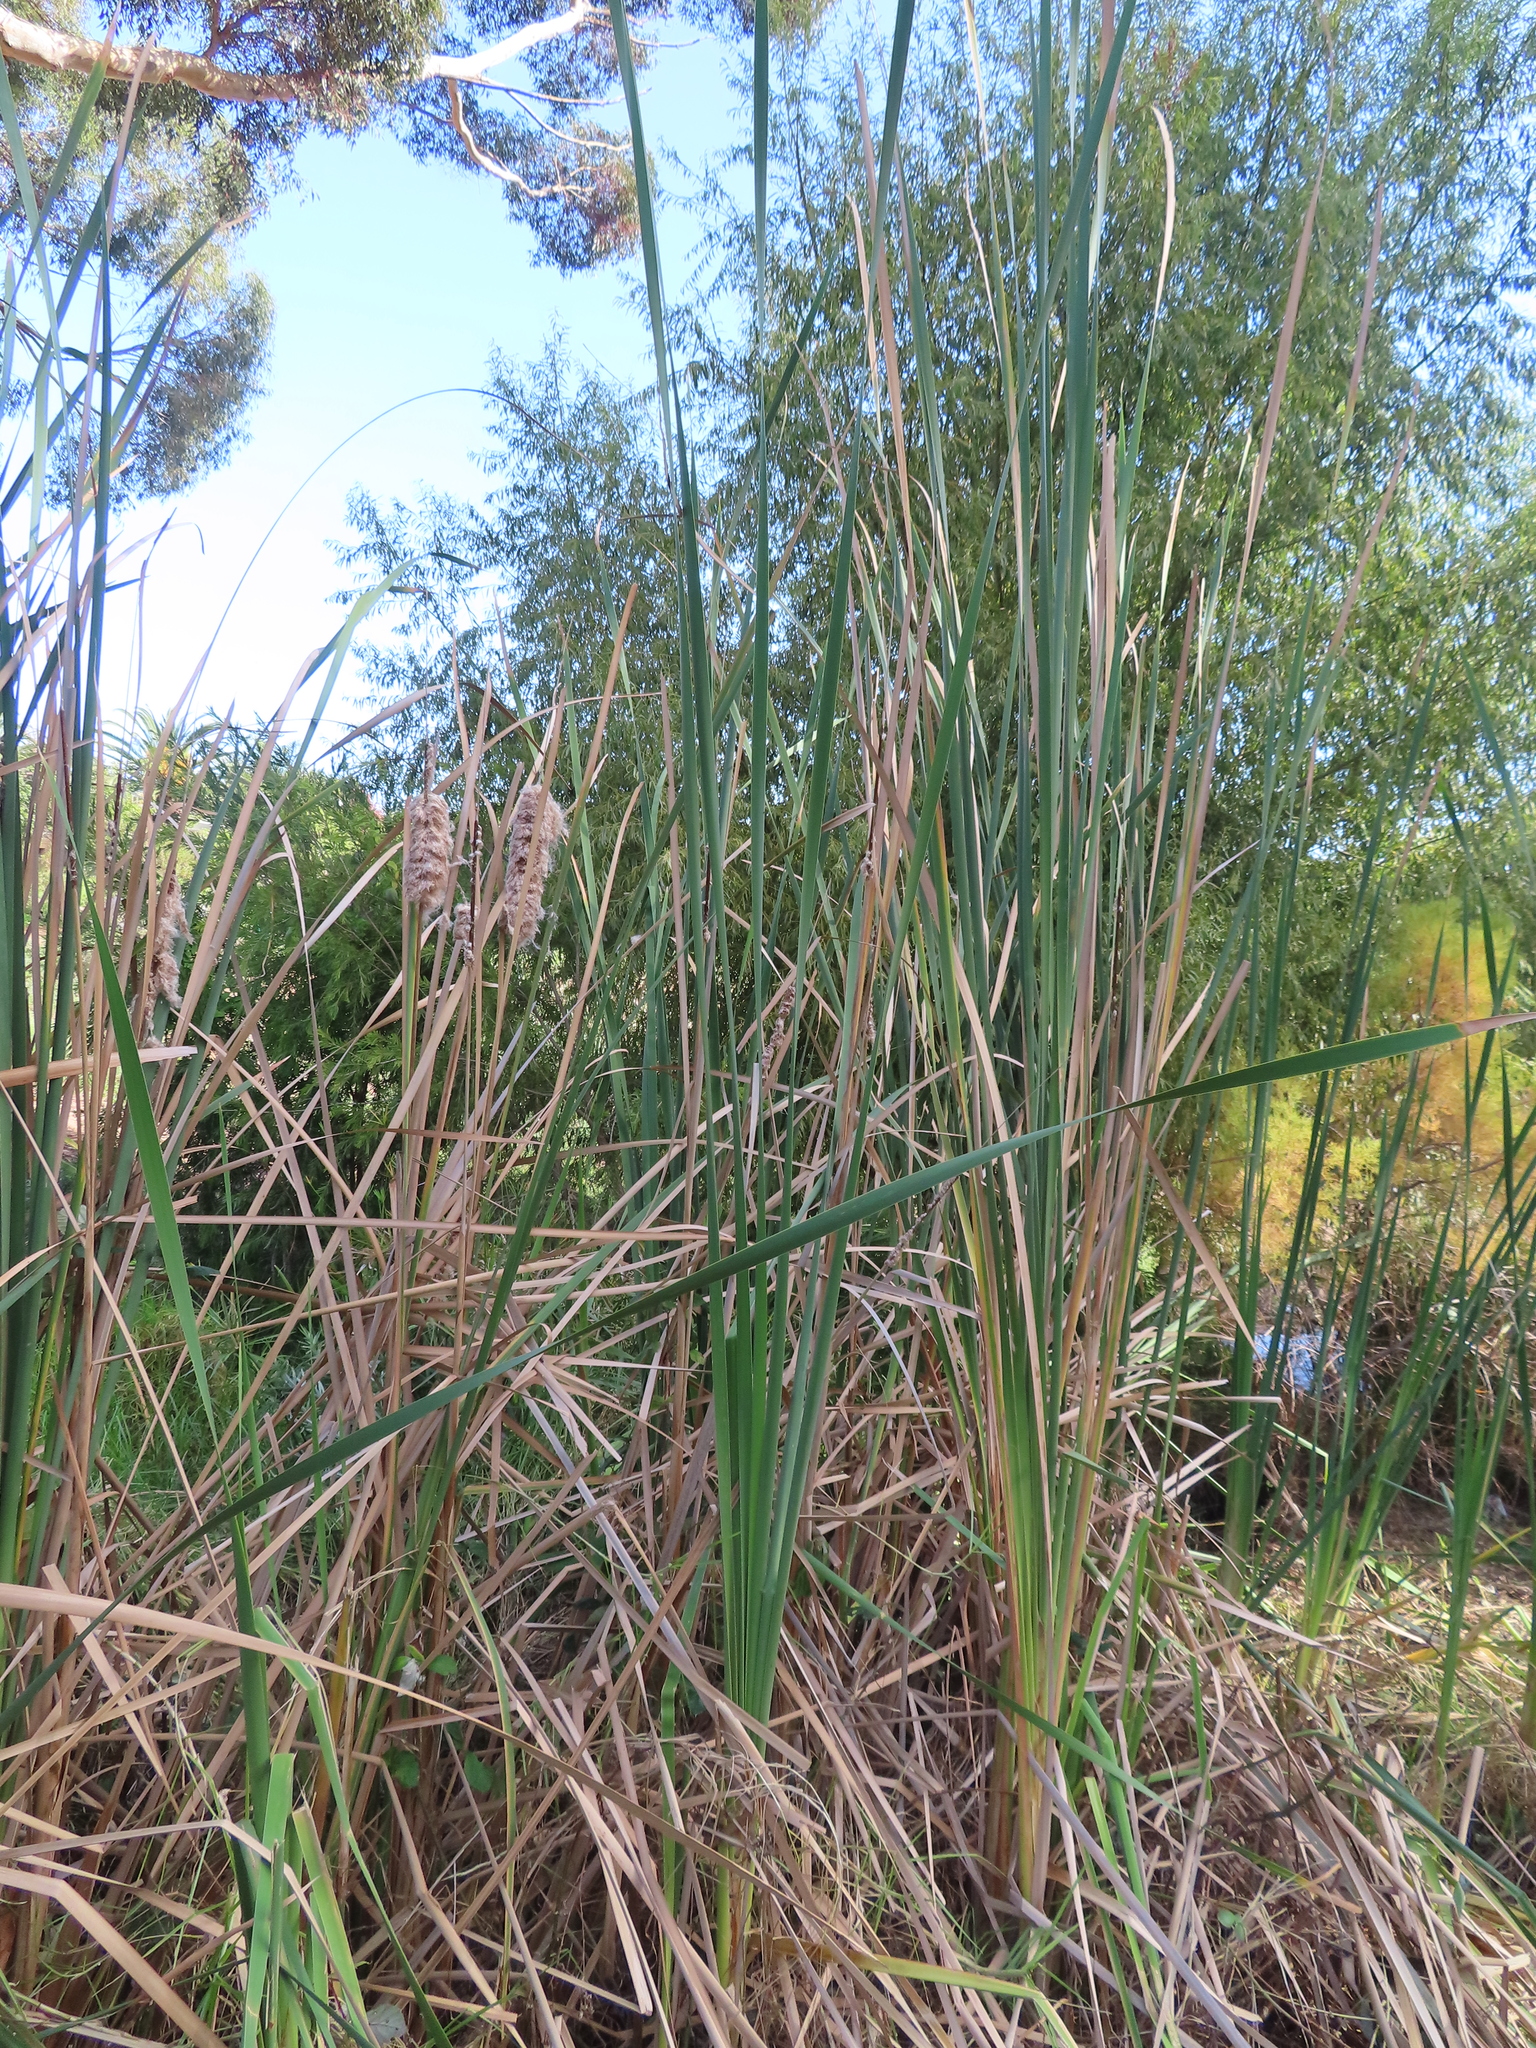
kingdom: Plantae
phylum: Tracheophyta
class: Liliopsida
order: Poales
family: Typhaceae
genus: Typha
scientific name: Typha capensis
